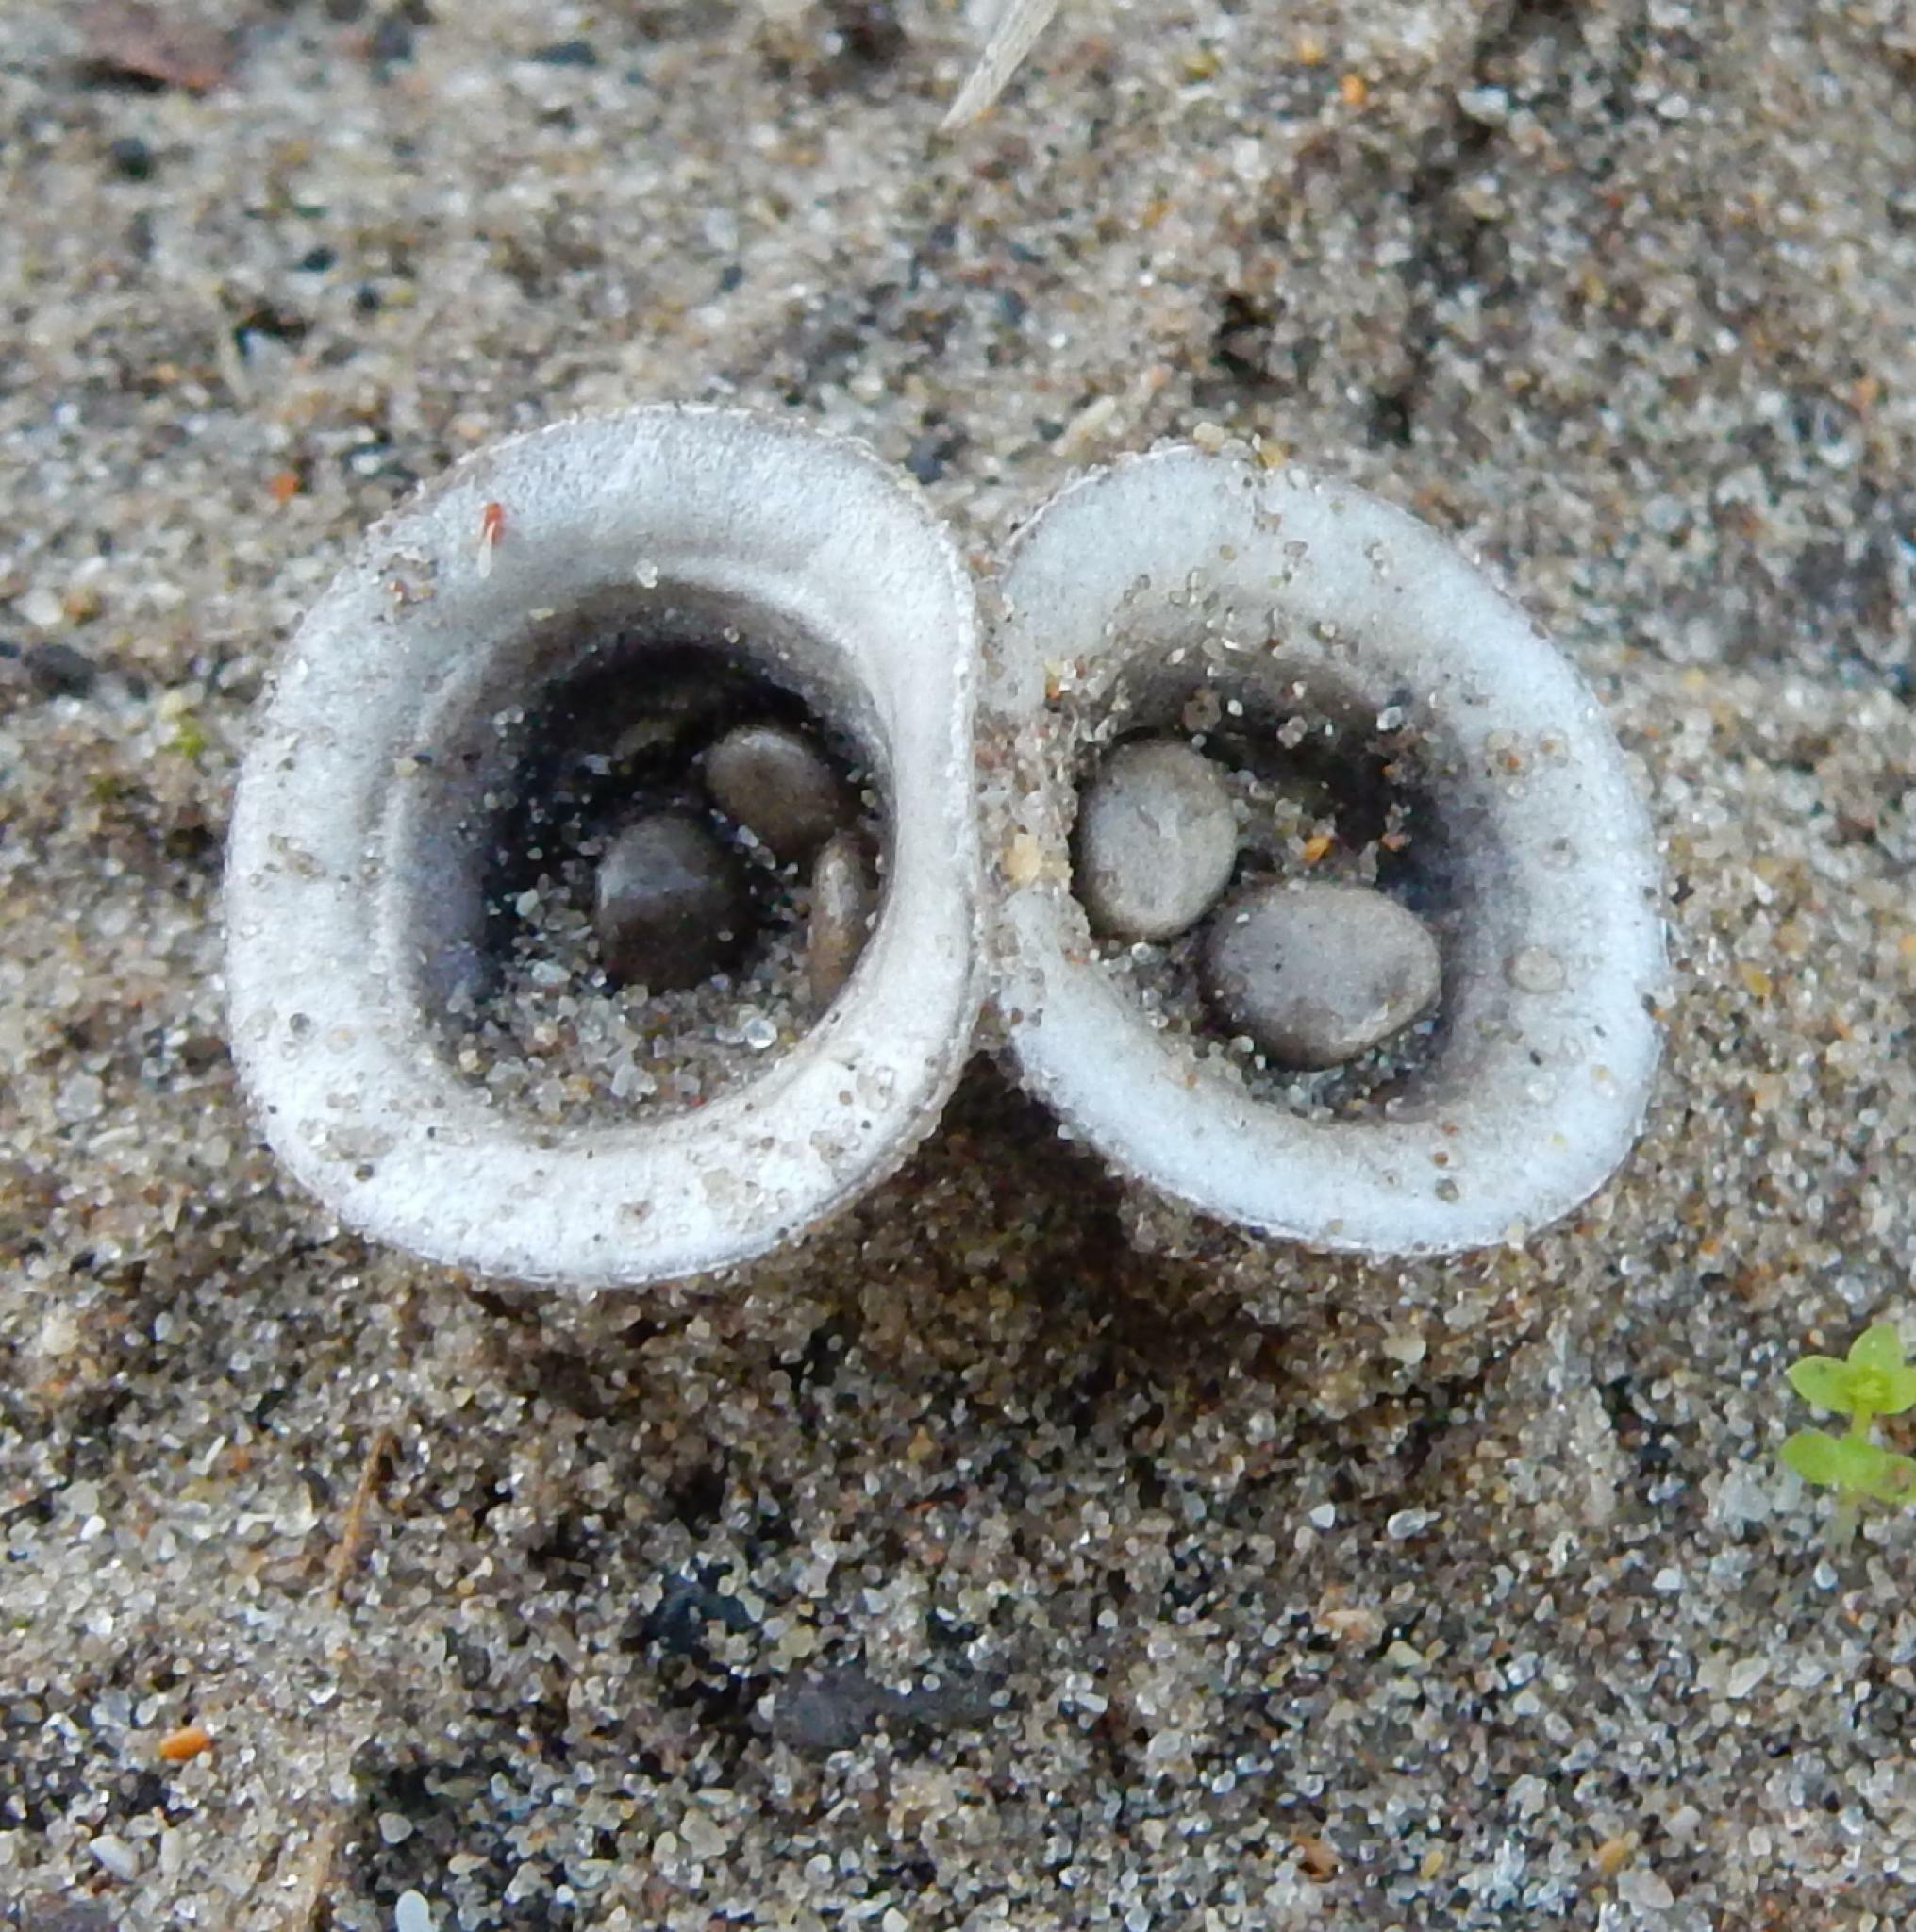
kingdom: Fungi
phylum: Basidiomycota
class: Agaricomycetes
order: Agaricales
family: Agaricaceae
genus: Cyathus
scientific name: Cyathus olla
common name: Field bird's nest
